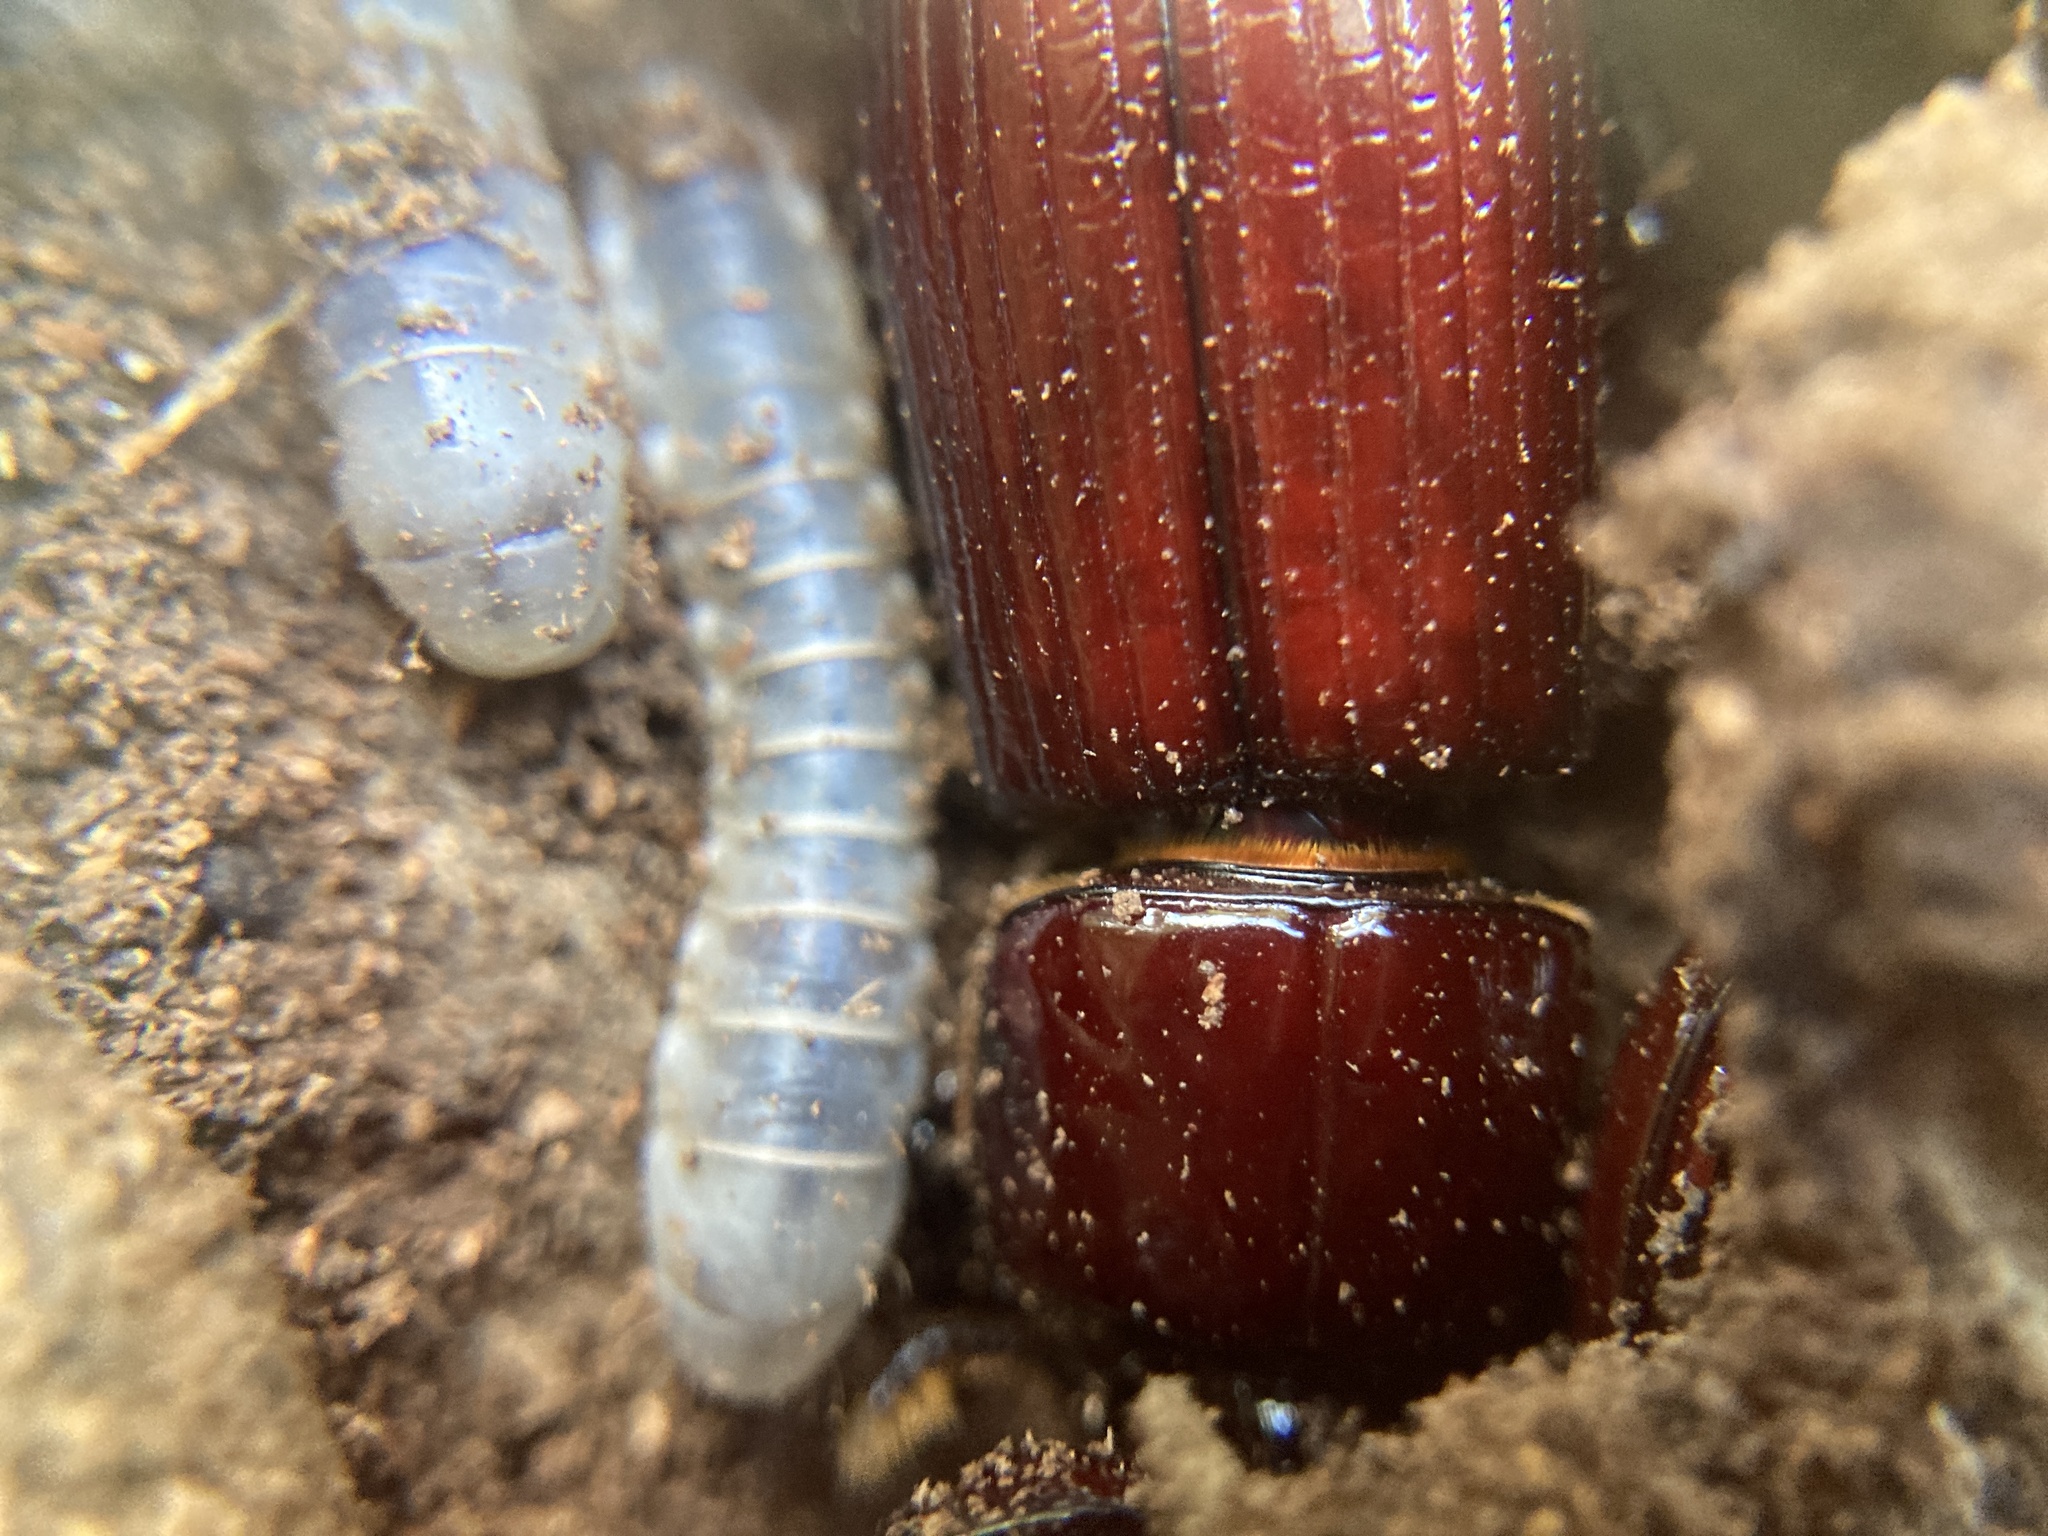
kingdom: Animalia
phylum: Arthropoda
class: Insecta
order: Coleoptera
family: Passalidae
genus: Aulacocyclus
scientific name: Aulacocyclus edentulus
